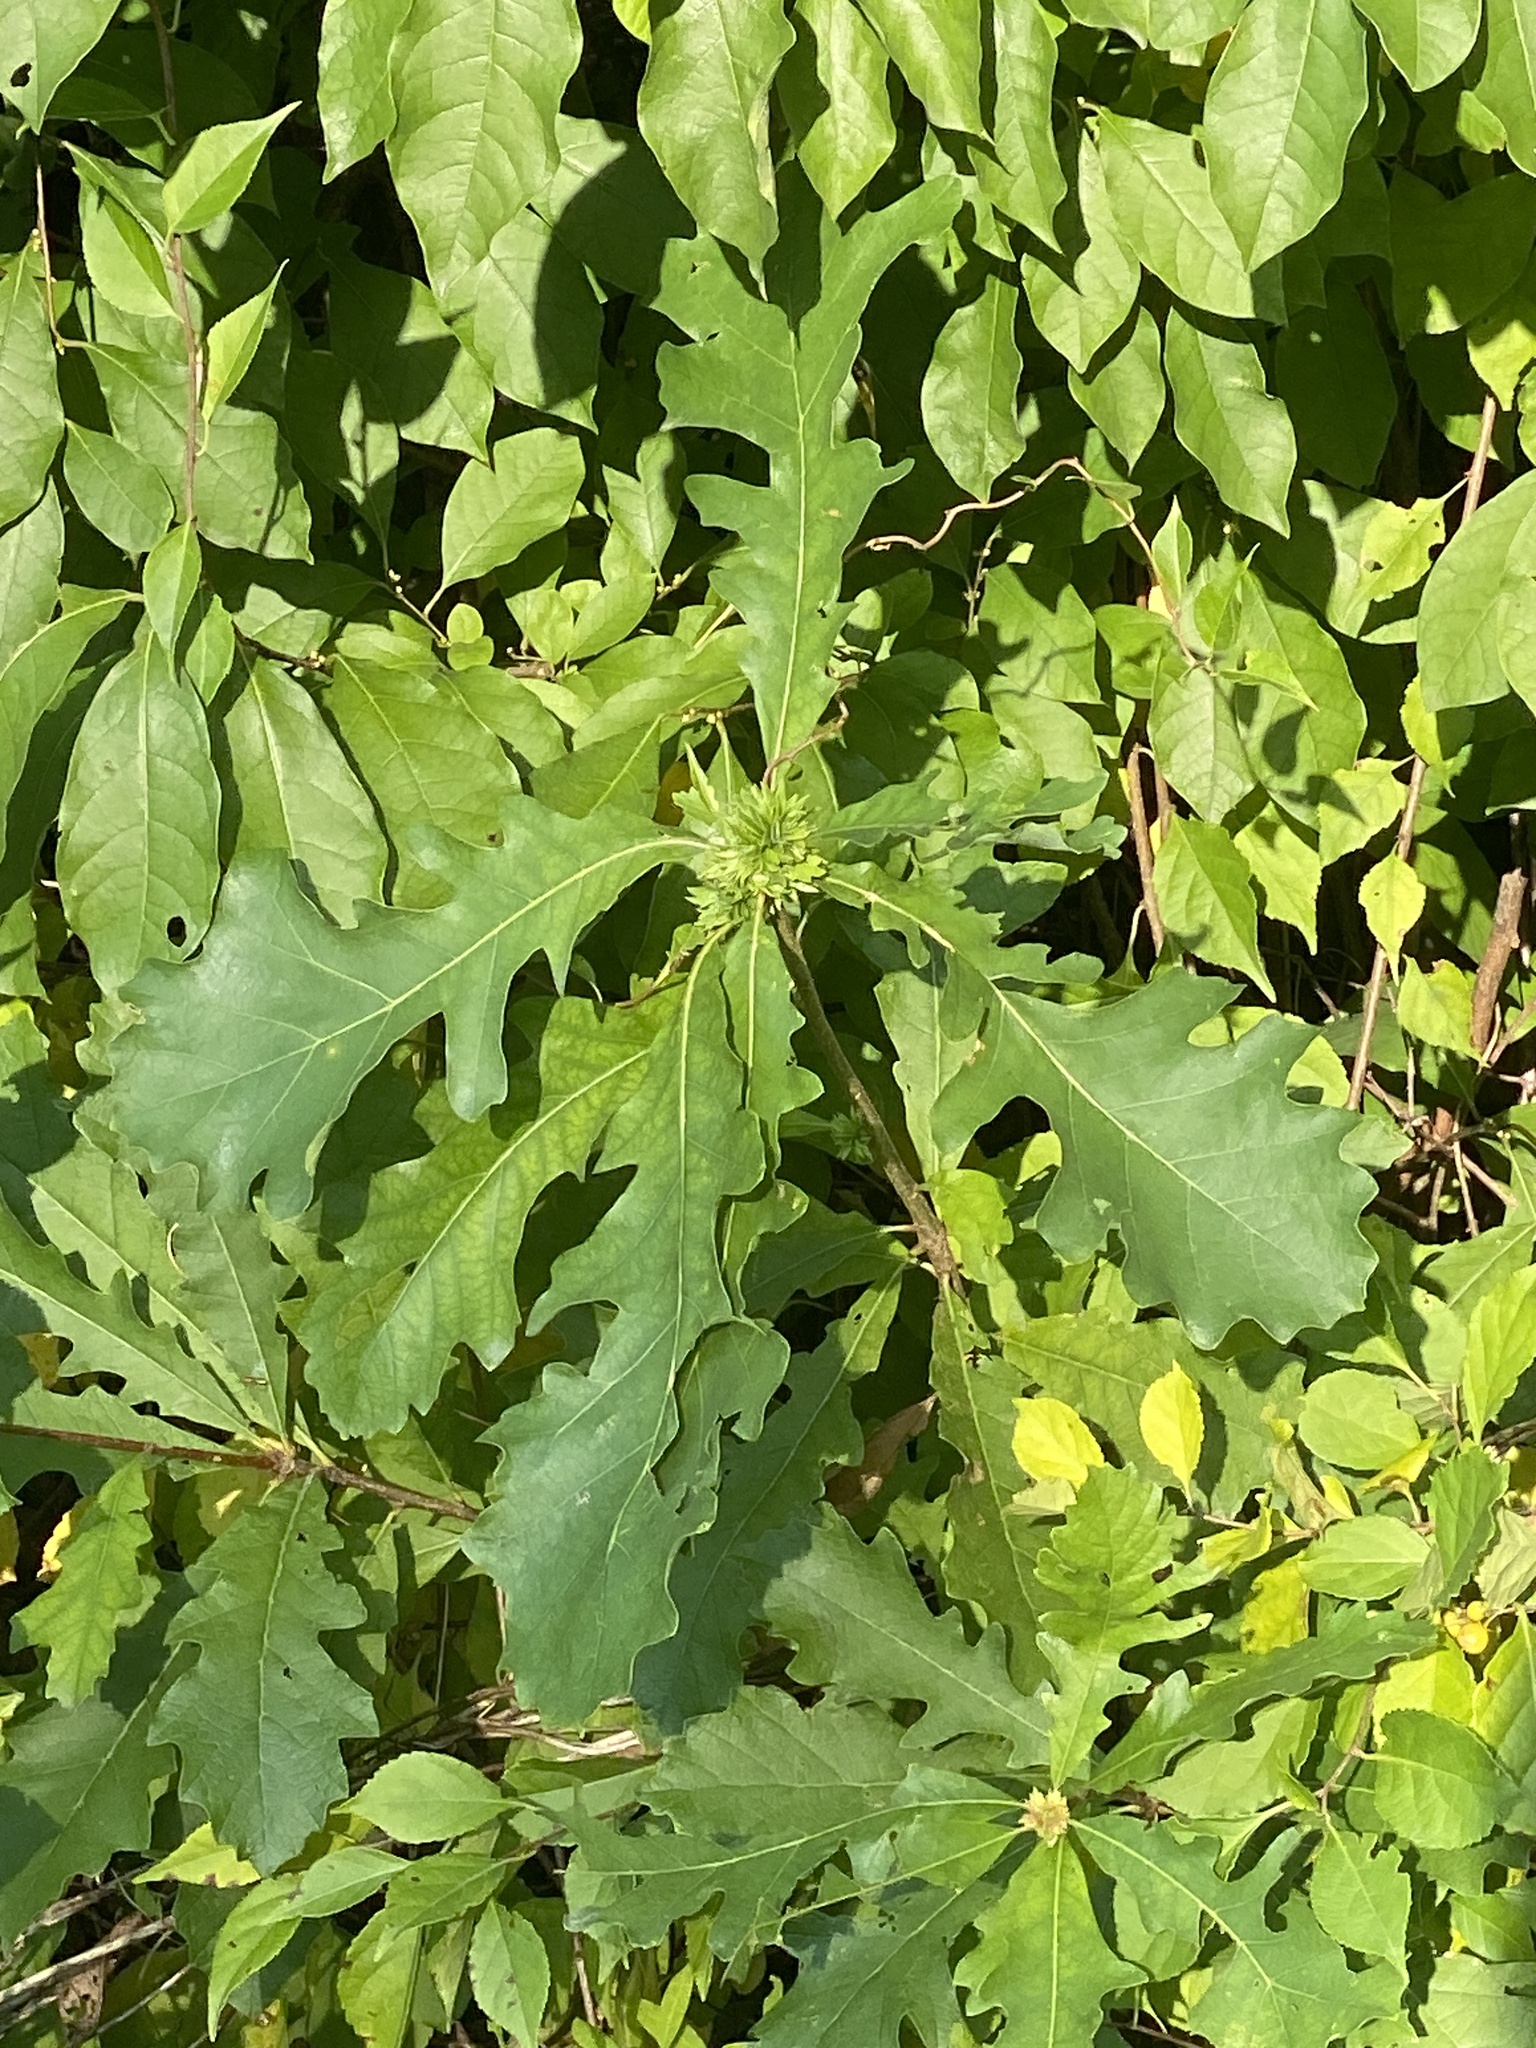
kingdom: Animalia
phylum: Arthropoda
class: Insecta
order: Hymenoptera
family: Cynipidae
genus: Andricus
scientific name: Andricus
